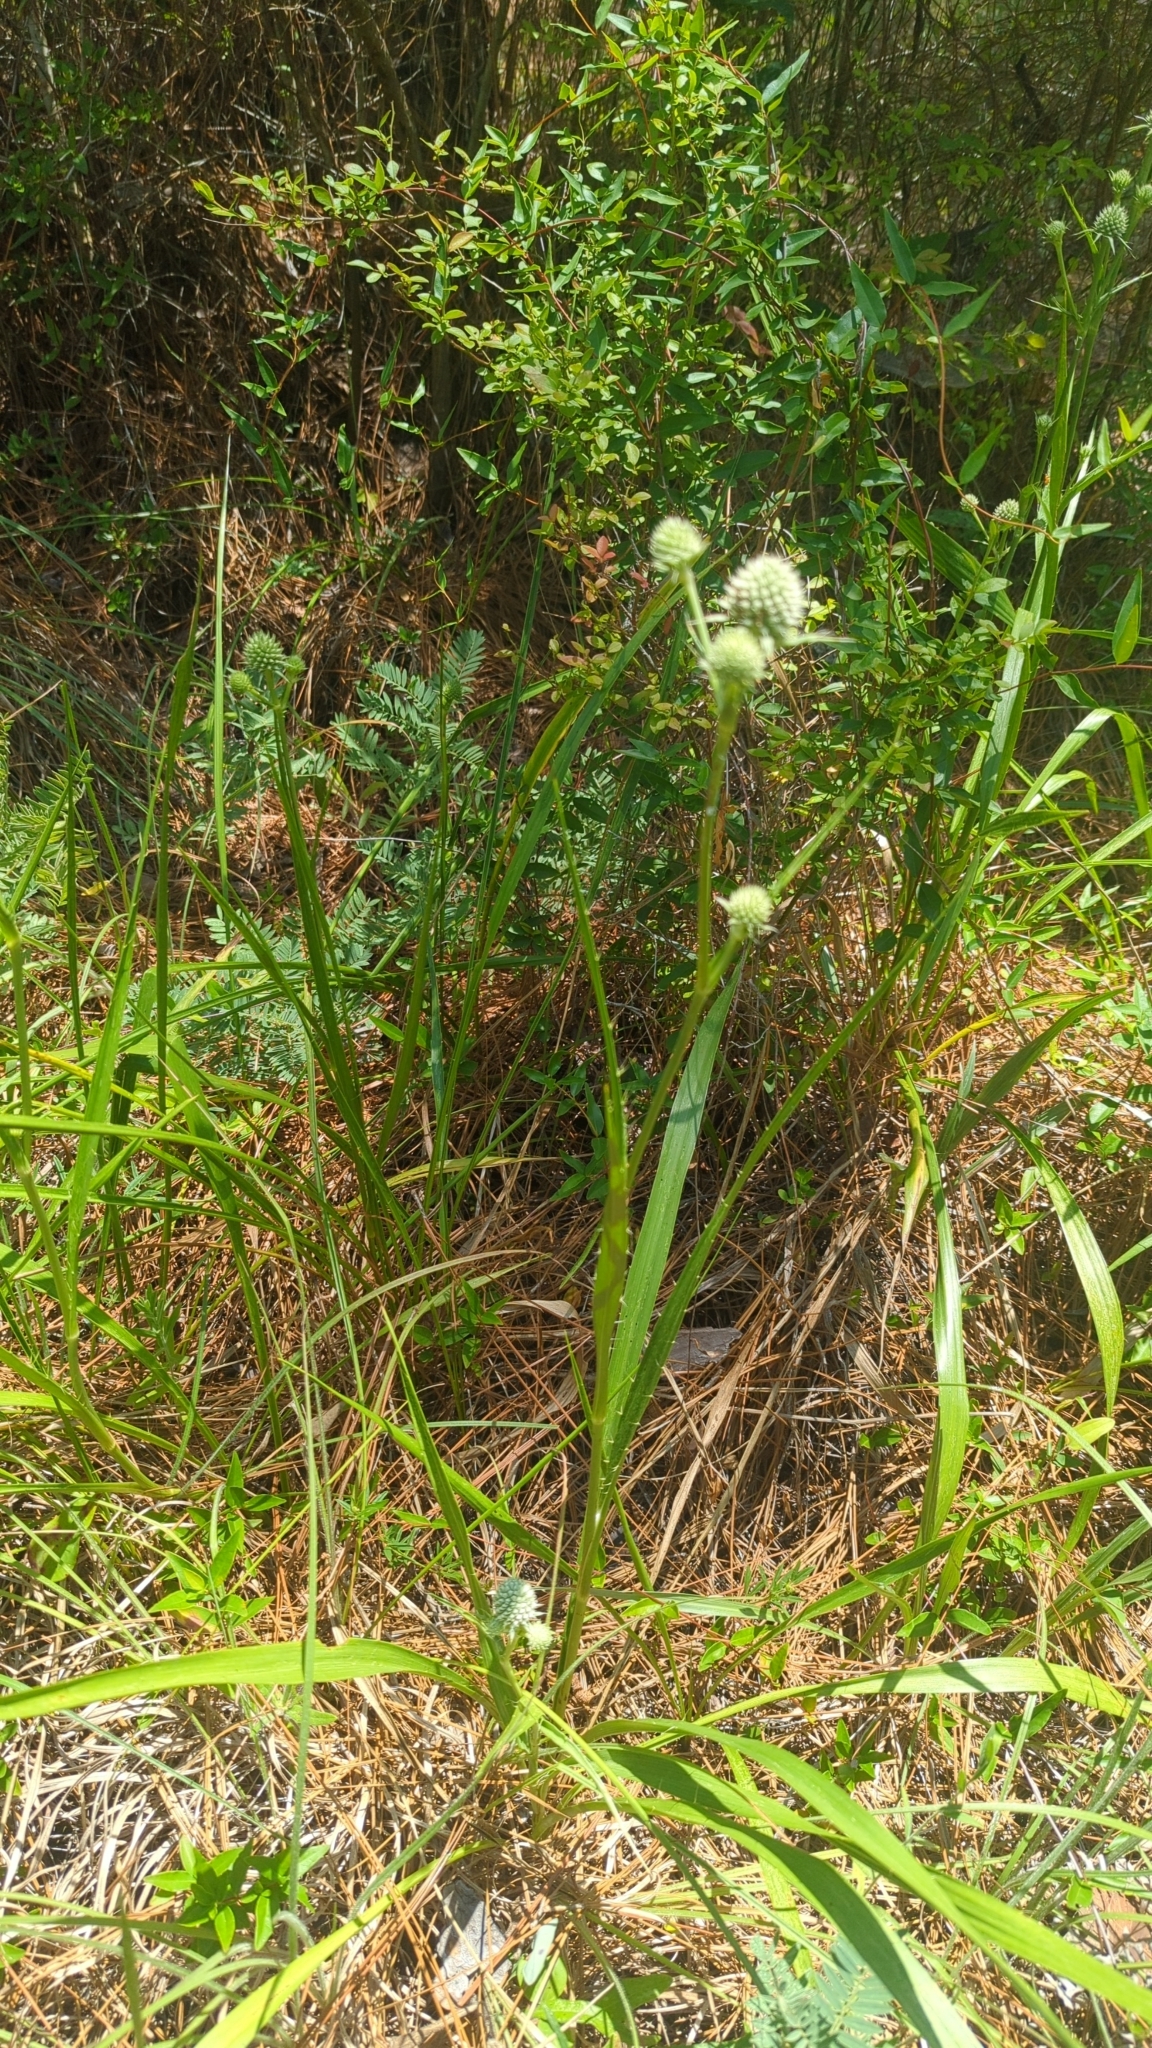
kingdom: Plantae
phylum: Tracheophyta
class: Magnoliopsida
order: Apiales
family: Apiaceae
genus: Eryngium
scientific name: Eryngium yuccifolium
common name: Button eryngo
